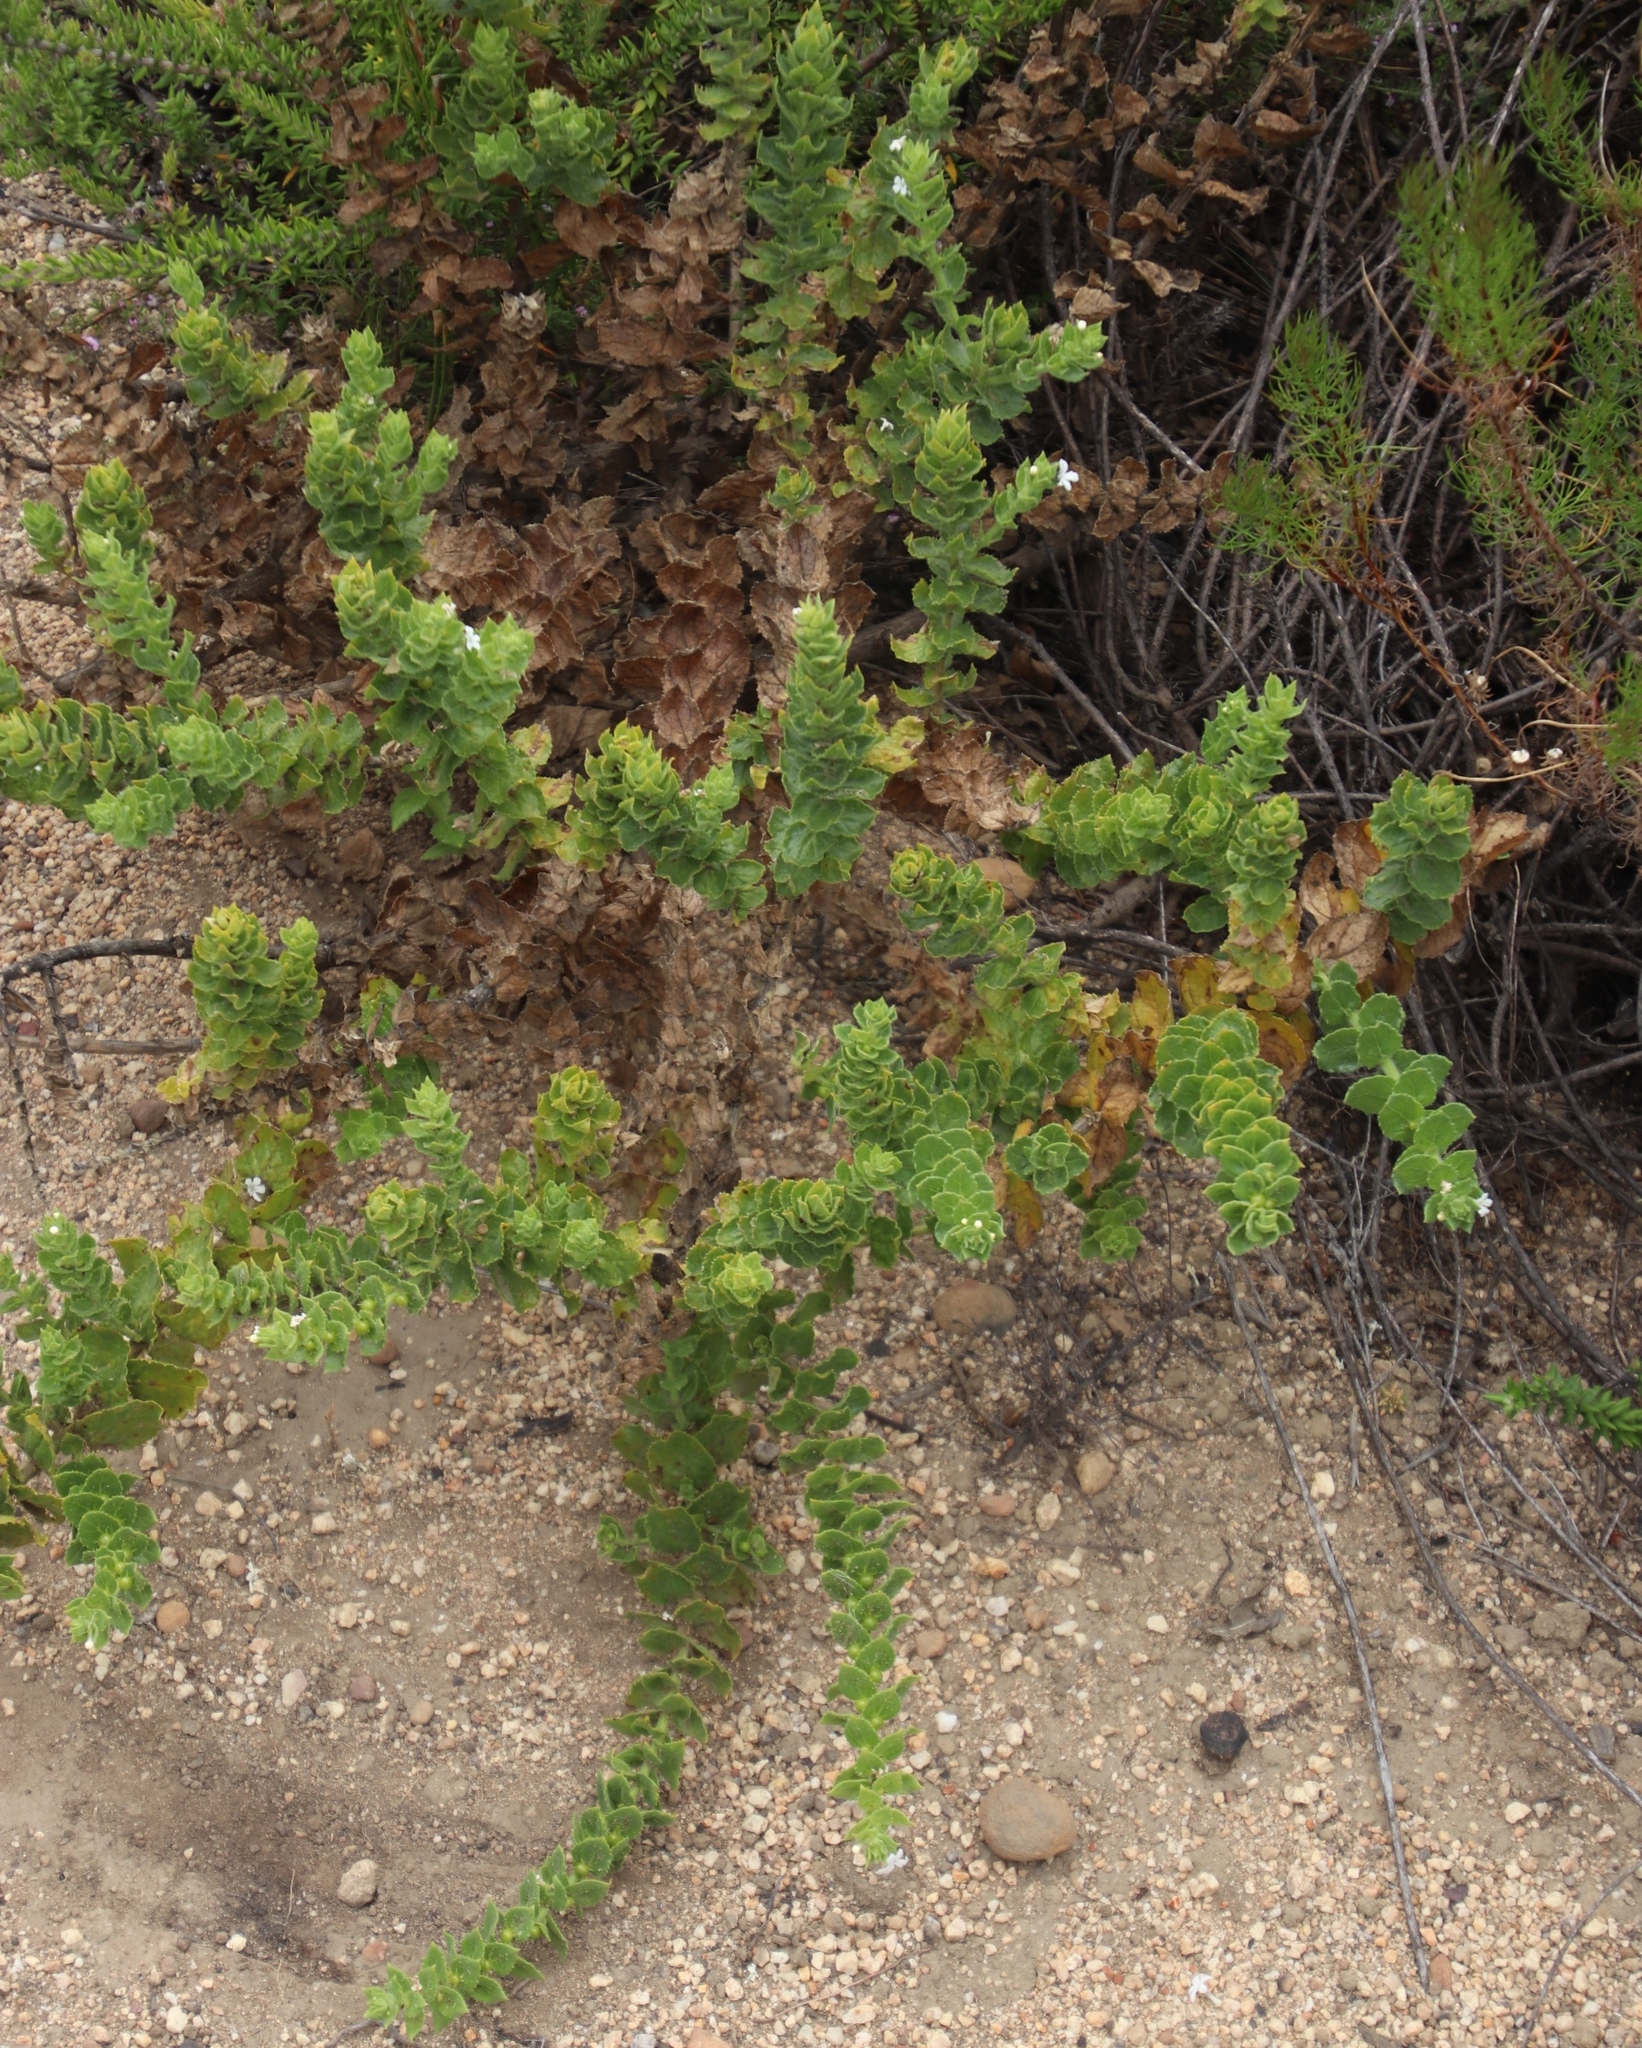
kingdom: Plantae
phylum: Tracheophyta
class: Magnoliopsida
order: Lamiales
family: Scrophulariaceae
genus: Oftia
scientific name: Oftia africana
